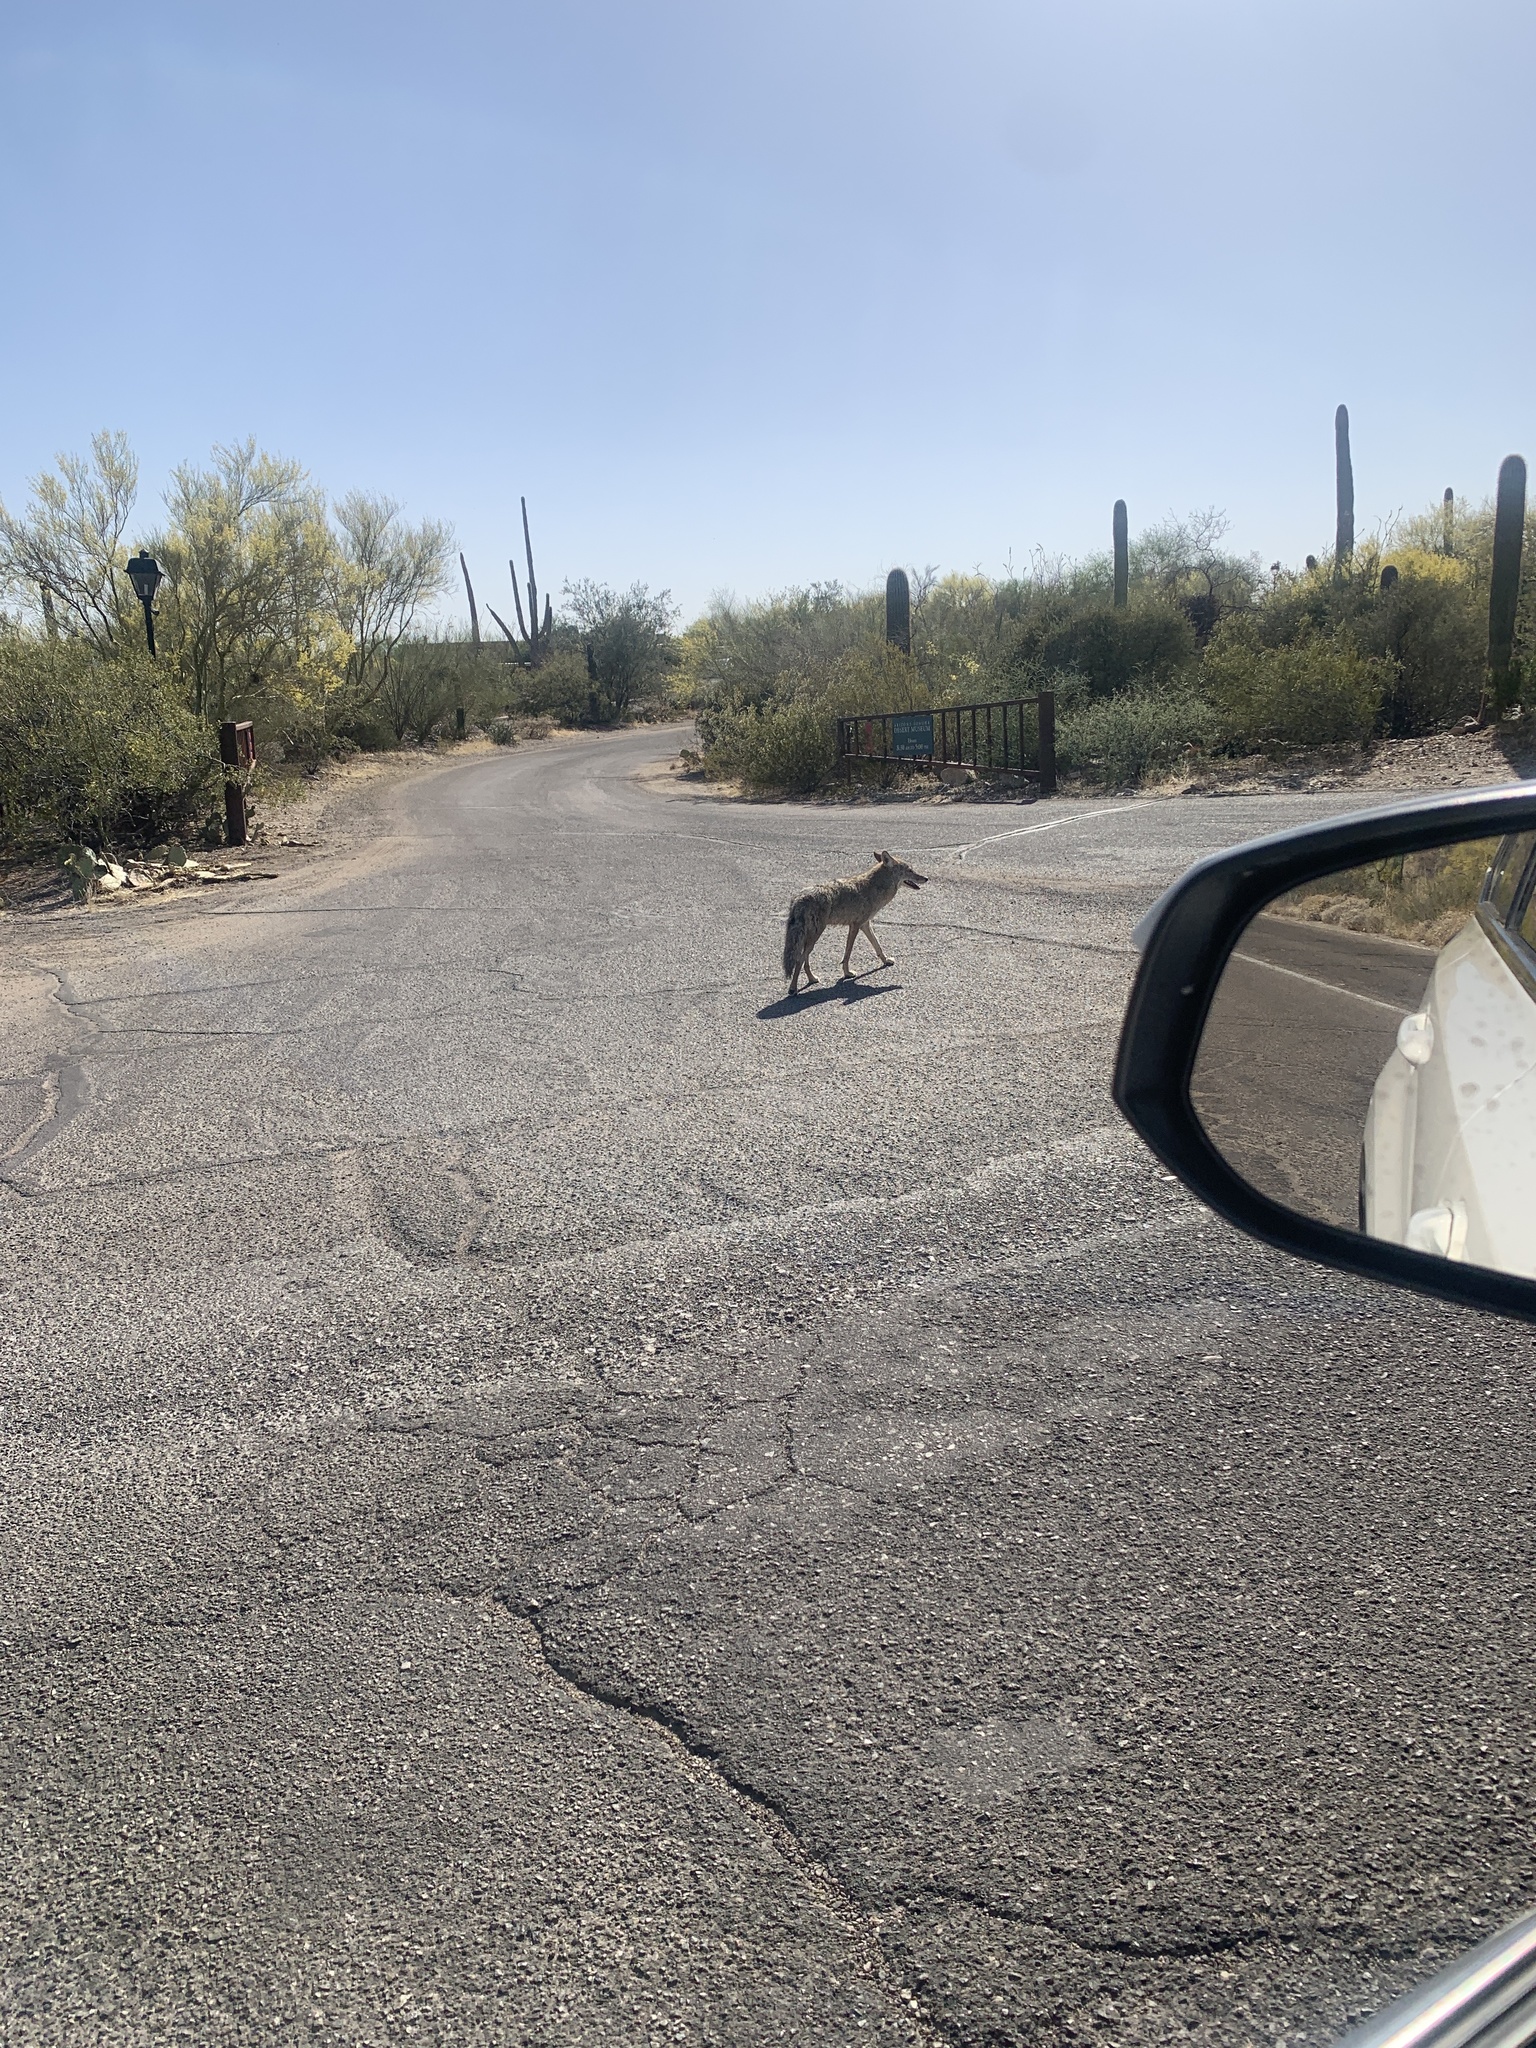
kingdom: Animalia
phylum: Chordata
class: Mammalia
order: Carnivora
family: Canidae
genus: Canis
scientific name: Canis latrans
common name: Coyote
